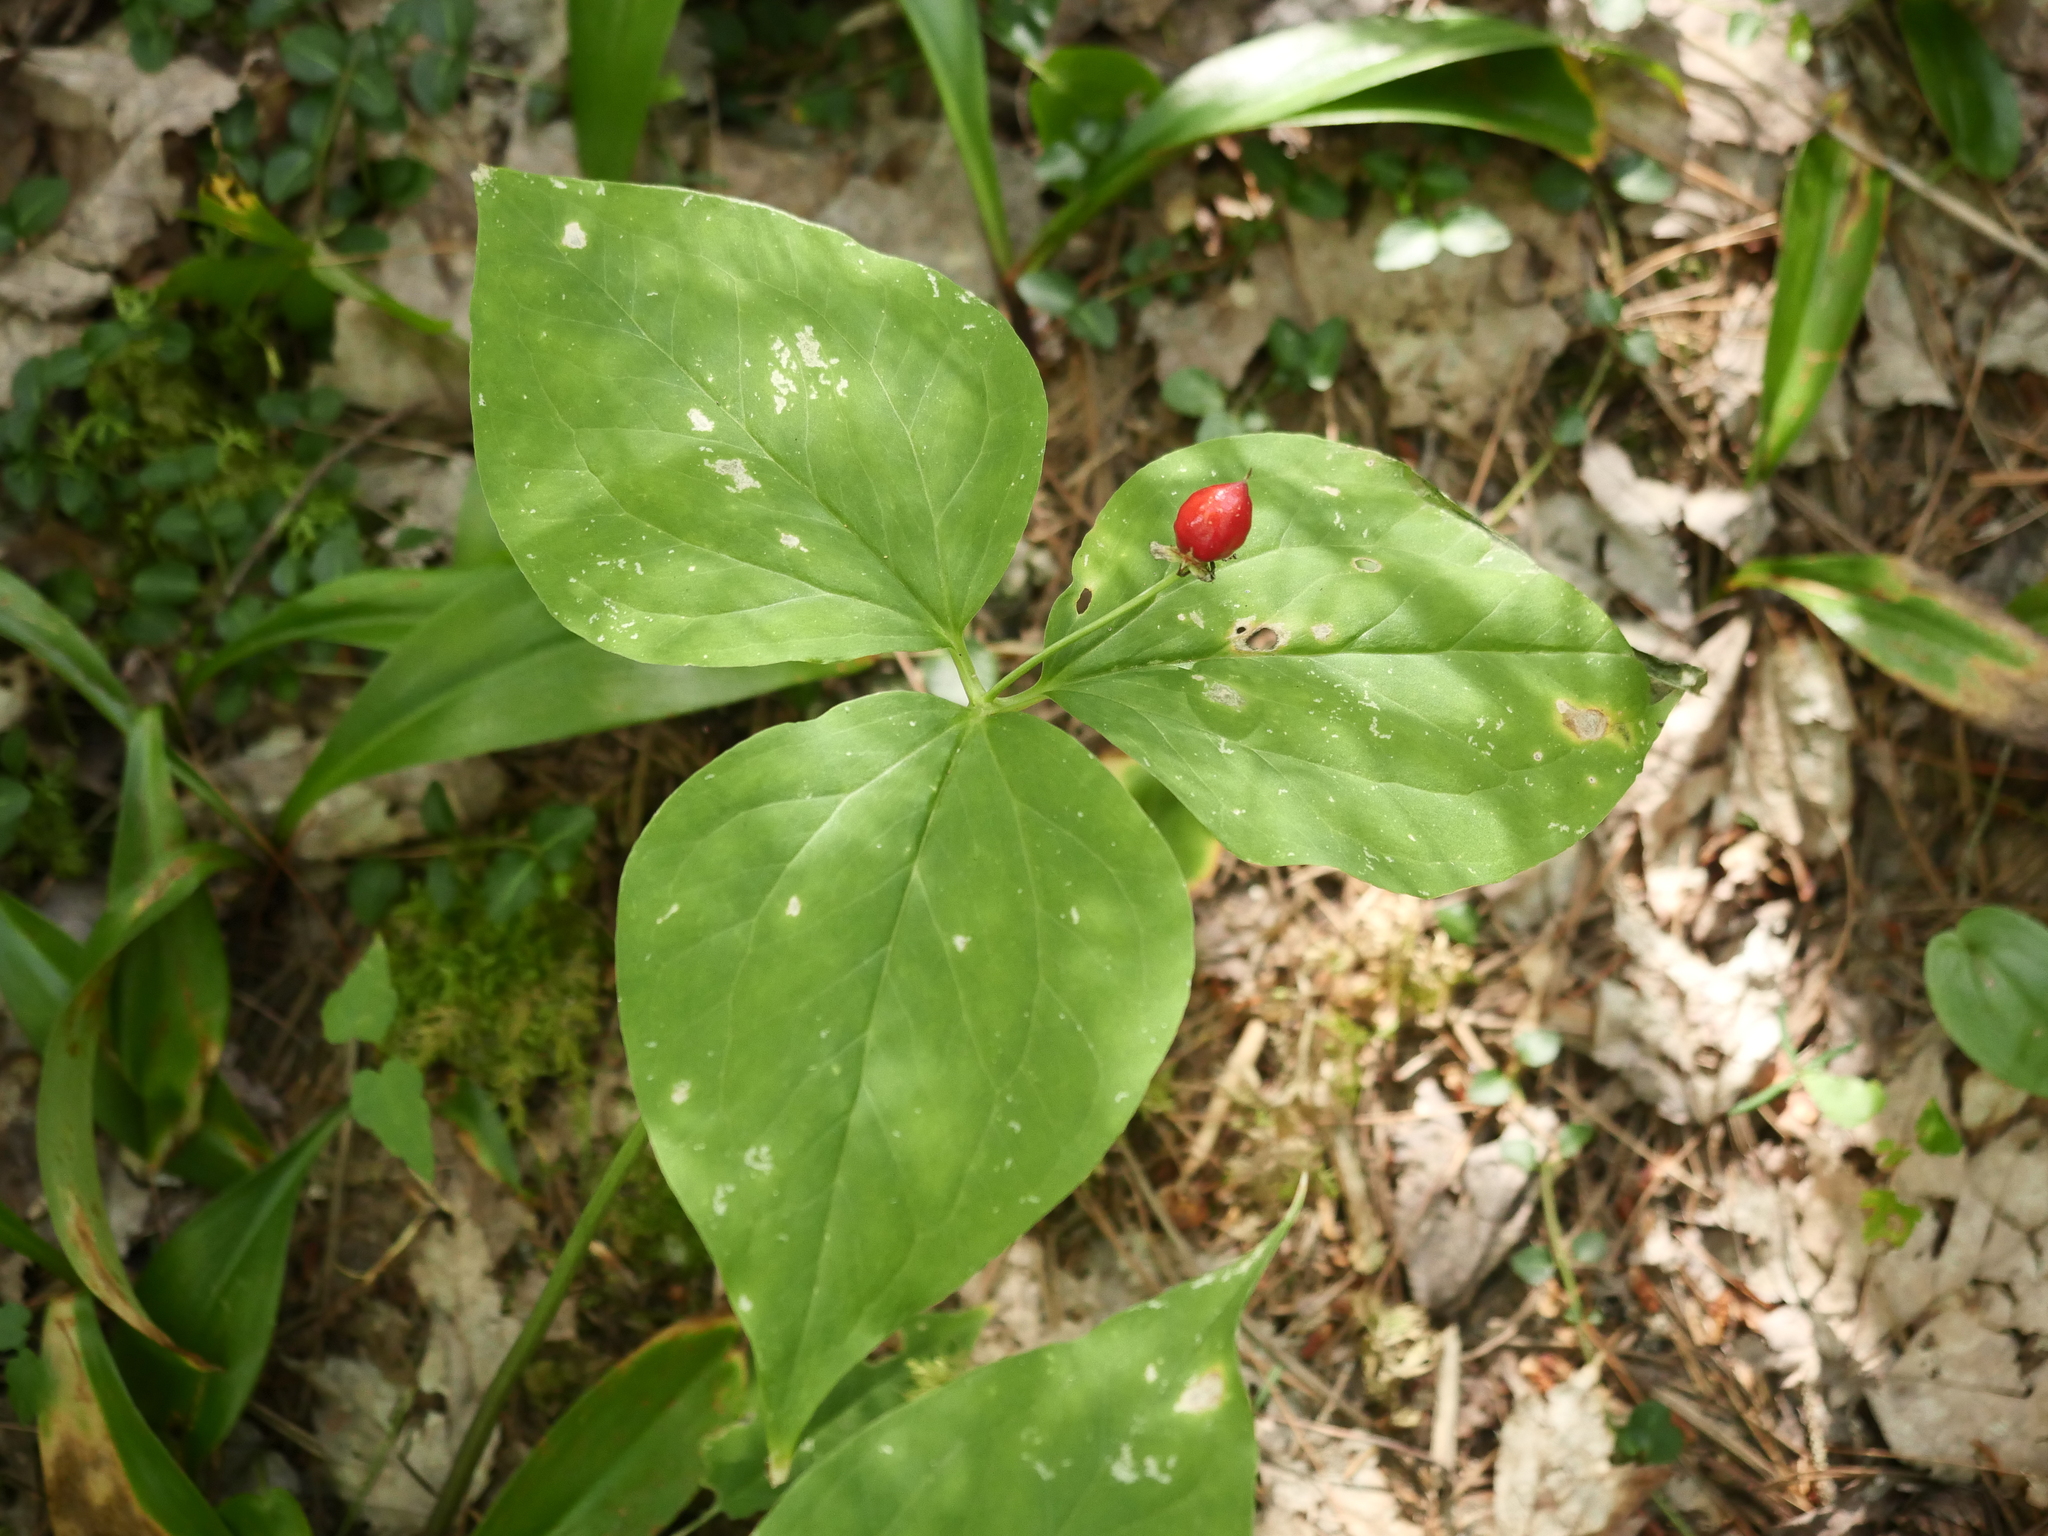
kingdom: Plantae
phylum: Tracheophyta
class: Liliopsida
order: Liliales
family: Melanthiaceae
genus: Trillium
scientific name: Trillium undulatum
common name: Paint trillium
